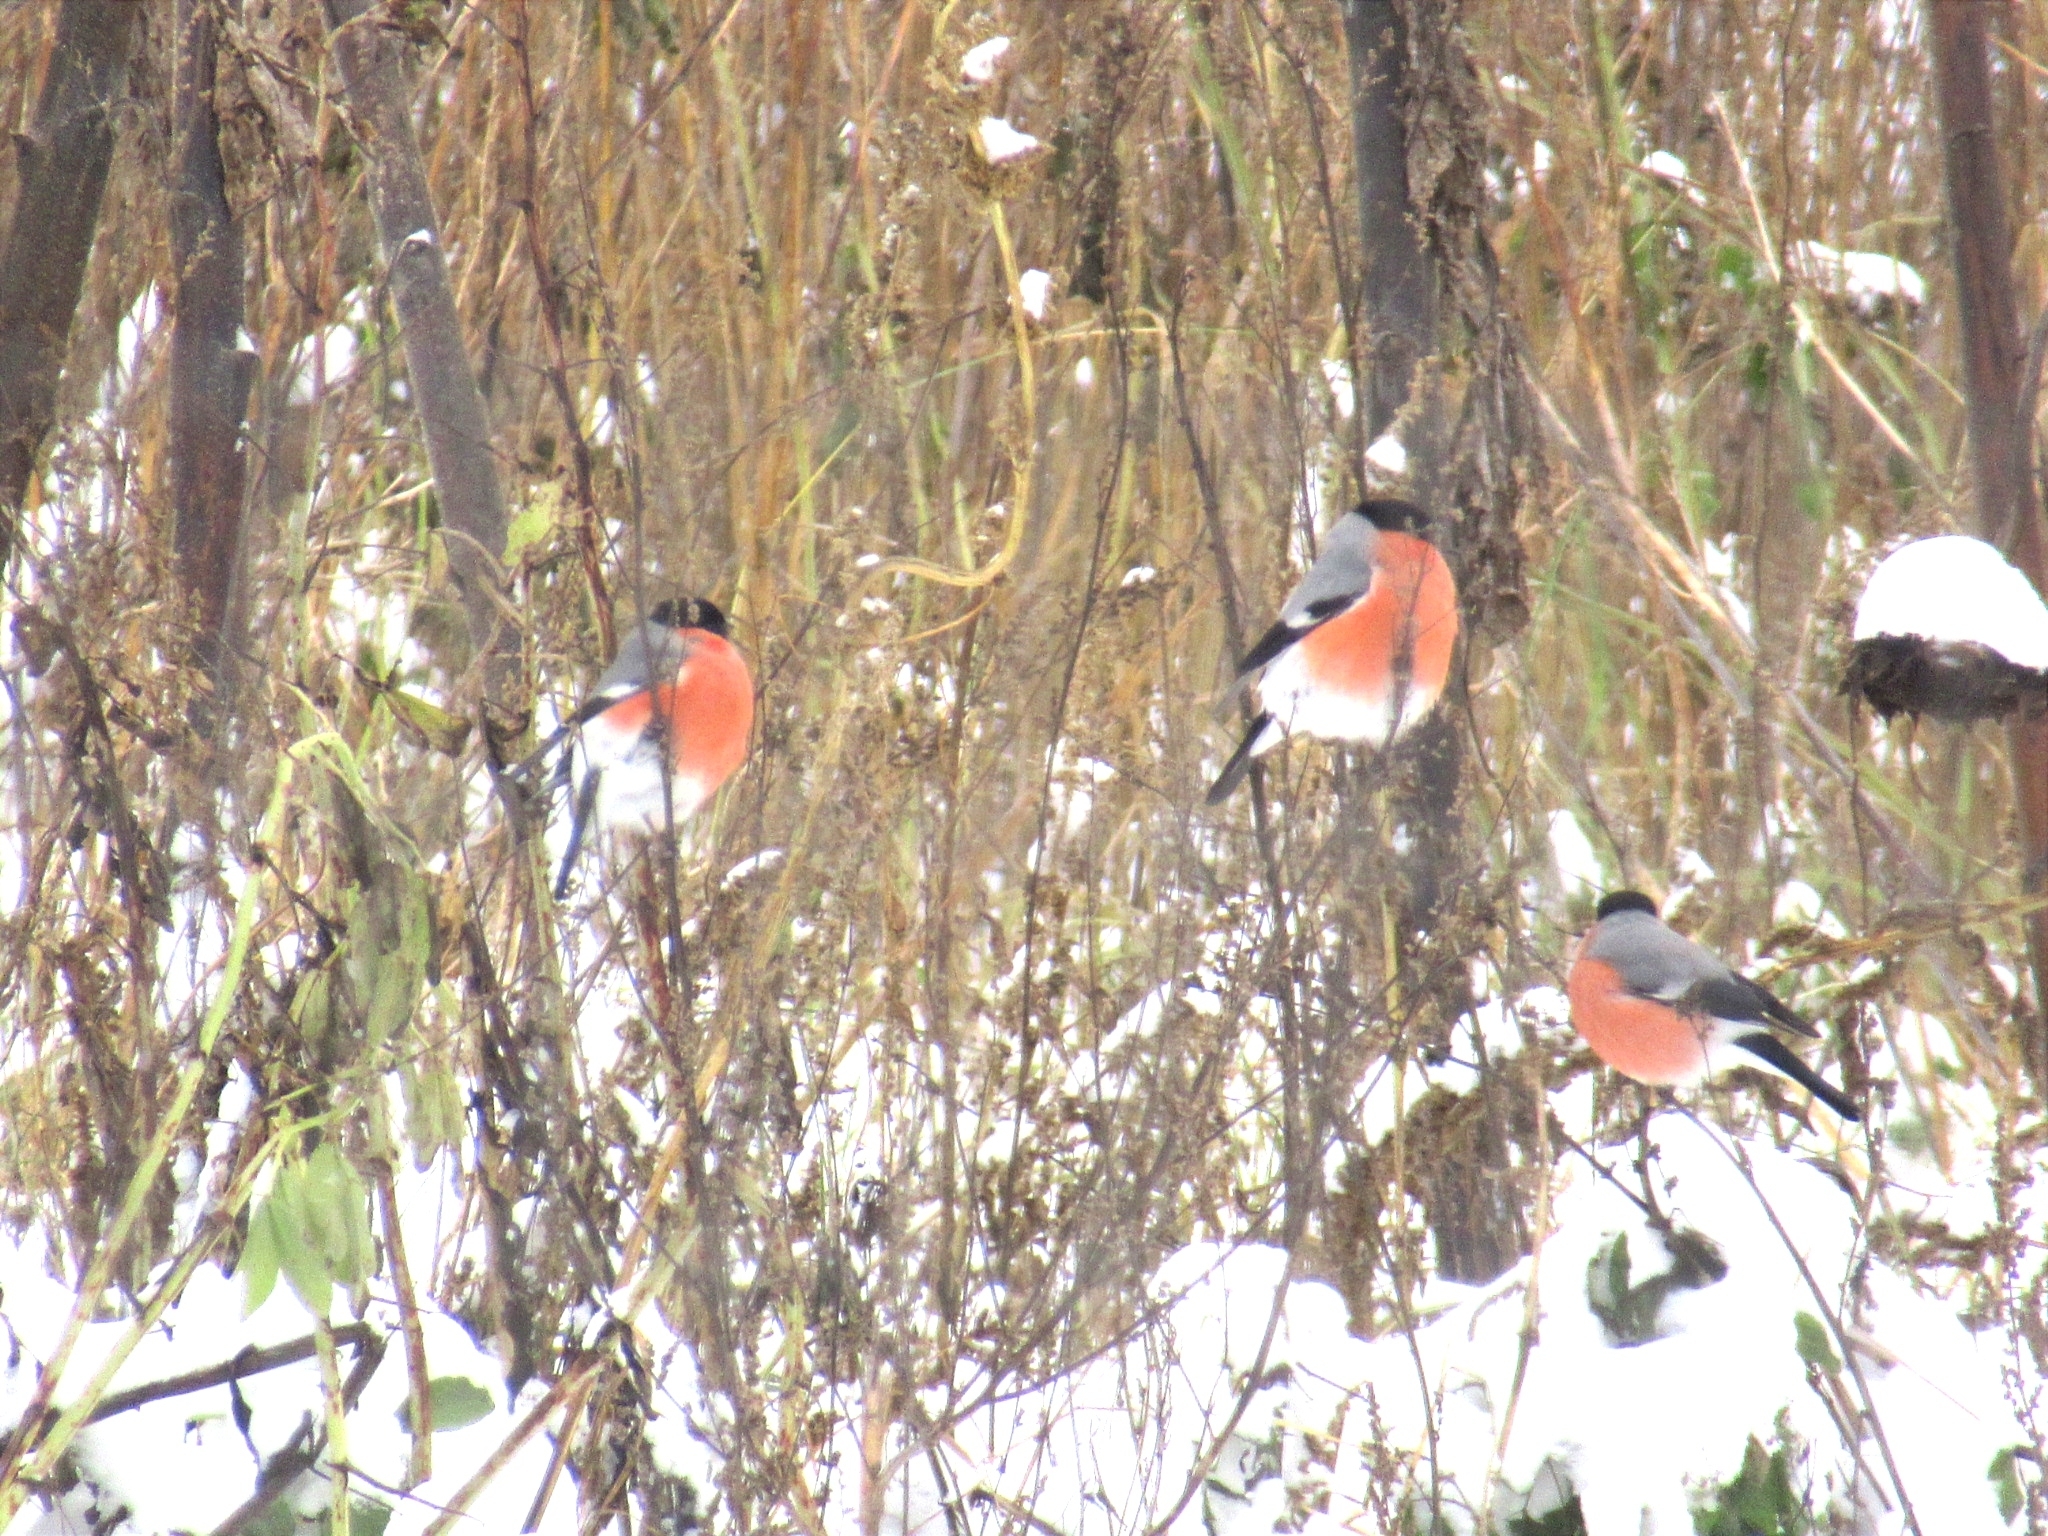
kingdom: Animalia
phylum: Chordata
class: Aves
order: Passeriformes
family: Fringillidae
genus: Pyrrhula
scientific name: Pyrrhula pyrrhula
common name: Eurasian bullfinch
